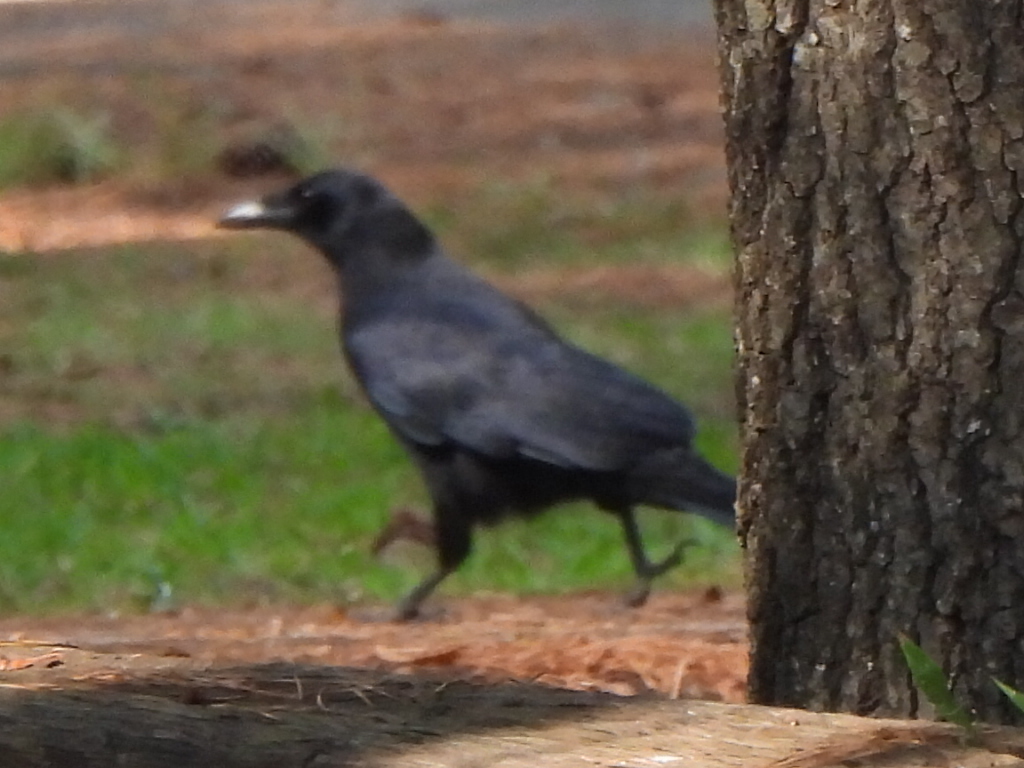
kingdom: Animalia
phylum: Chordata
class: Aves
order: Passeriformes
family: Corvidae
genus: Corvus
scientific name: Corvus brachyrhynchos
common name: American crow
